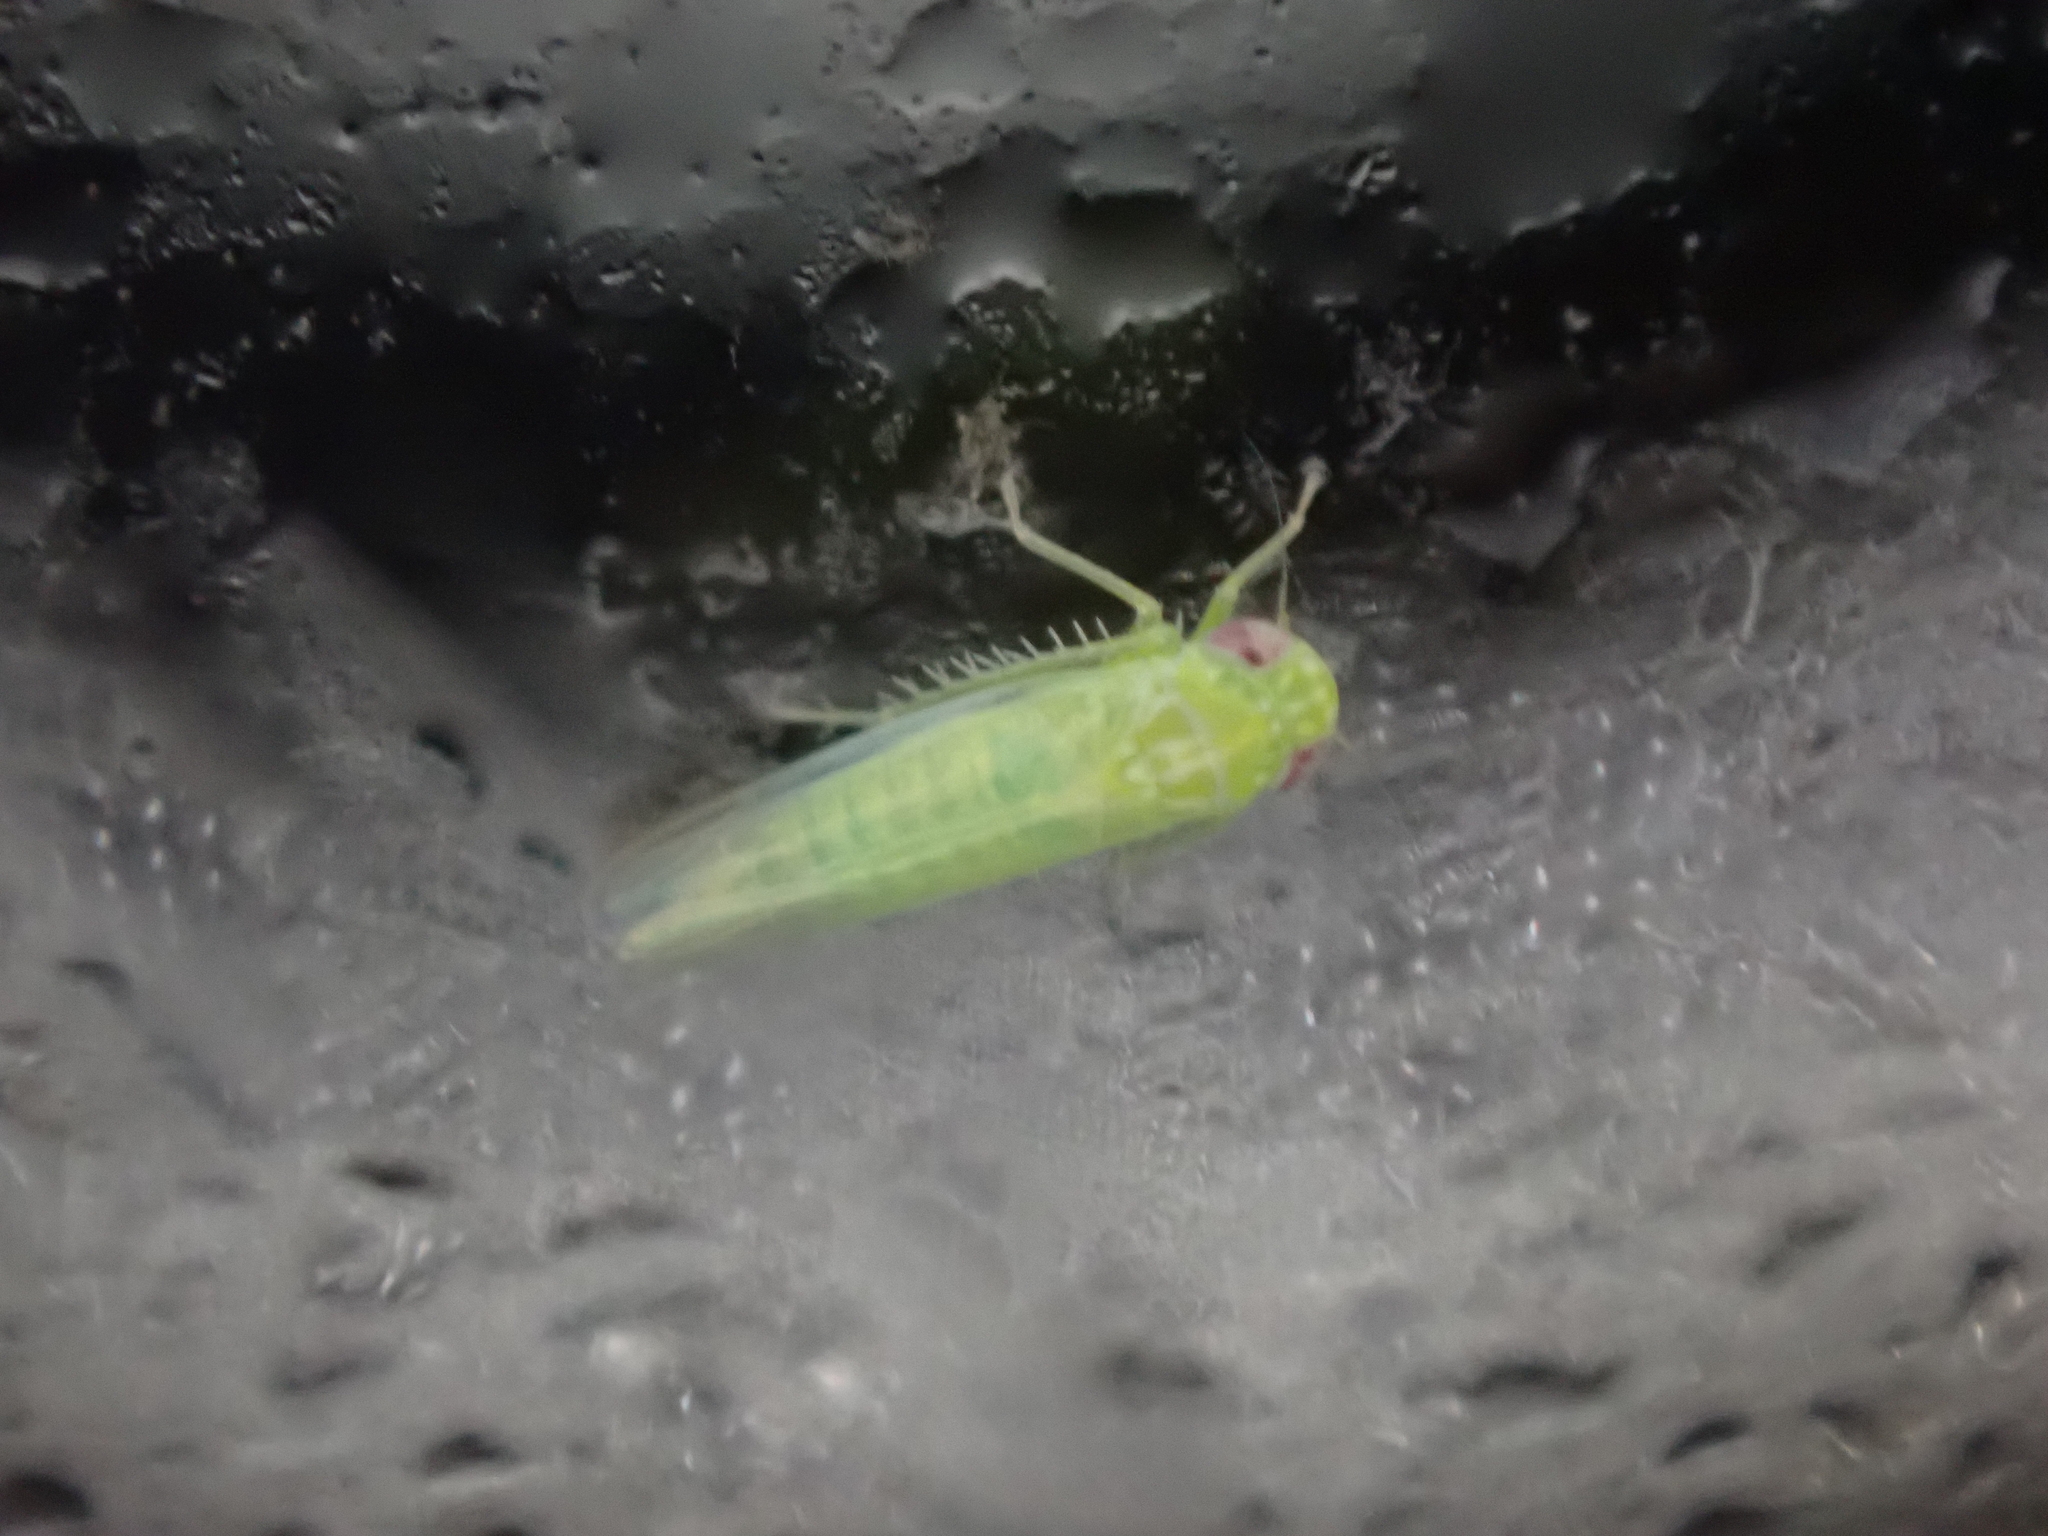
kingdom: Animalia
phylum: Arthropoda
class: Insecta
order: Hemiptera
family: Cicadellidae
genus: Empoasca
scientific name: Empoasca fabae
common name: Potato leafhopper
